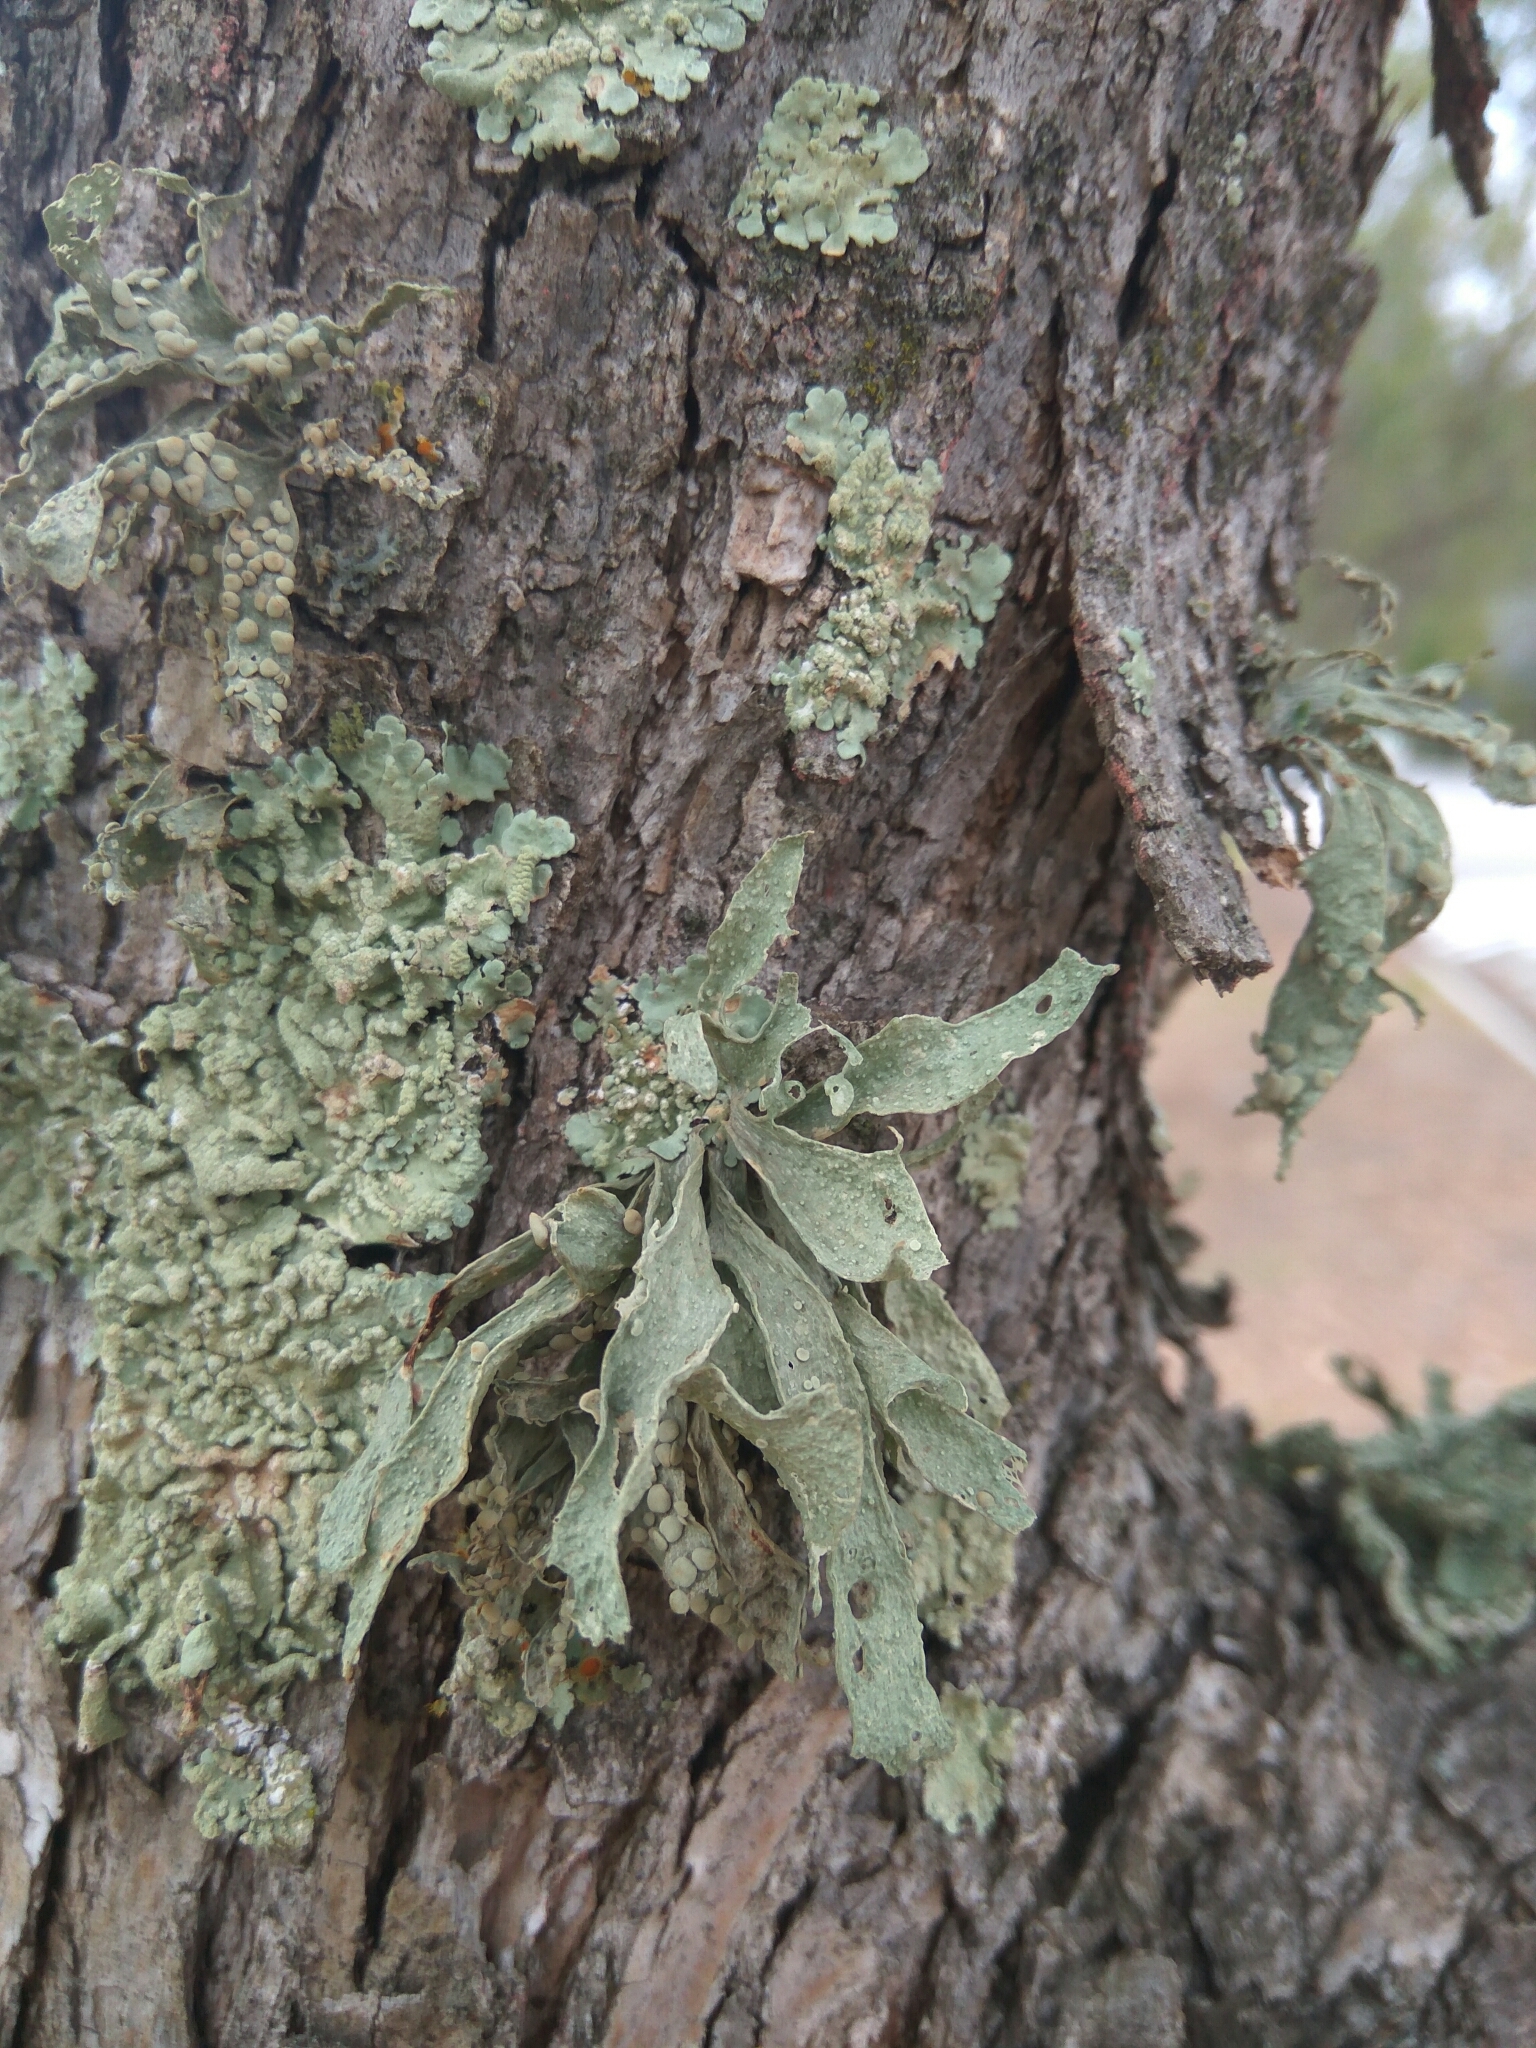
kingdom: Fungi
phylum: Ascomycota
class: Lecanoromycetes
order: Lecanorales
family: Ramalinaceae
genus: Ramalina
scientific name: Ramalina celastri
